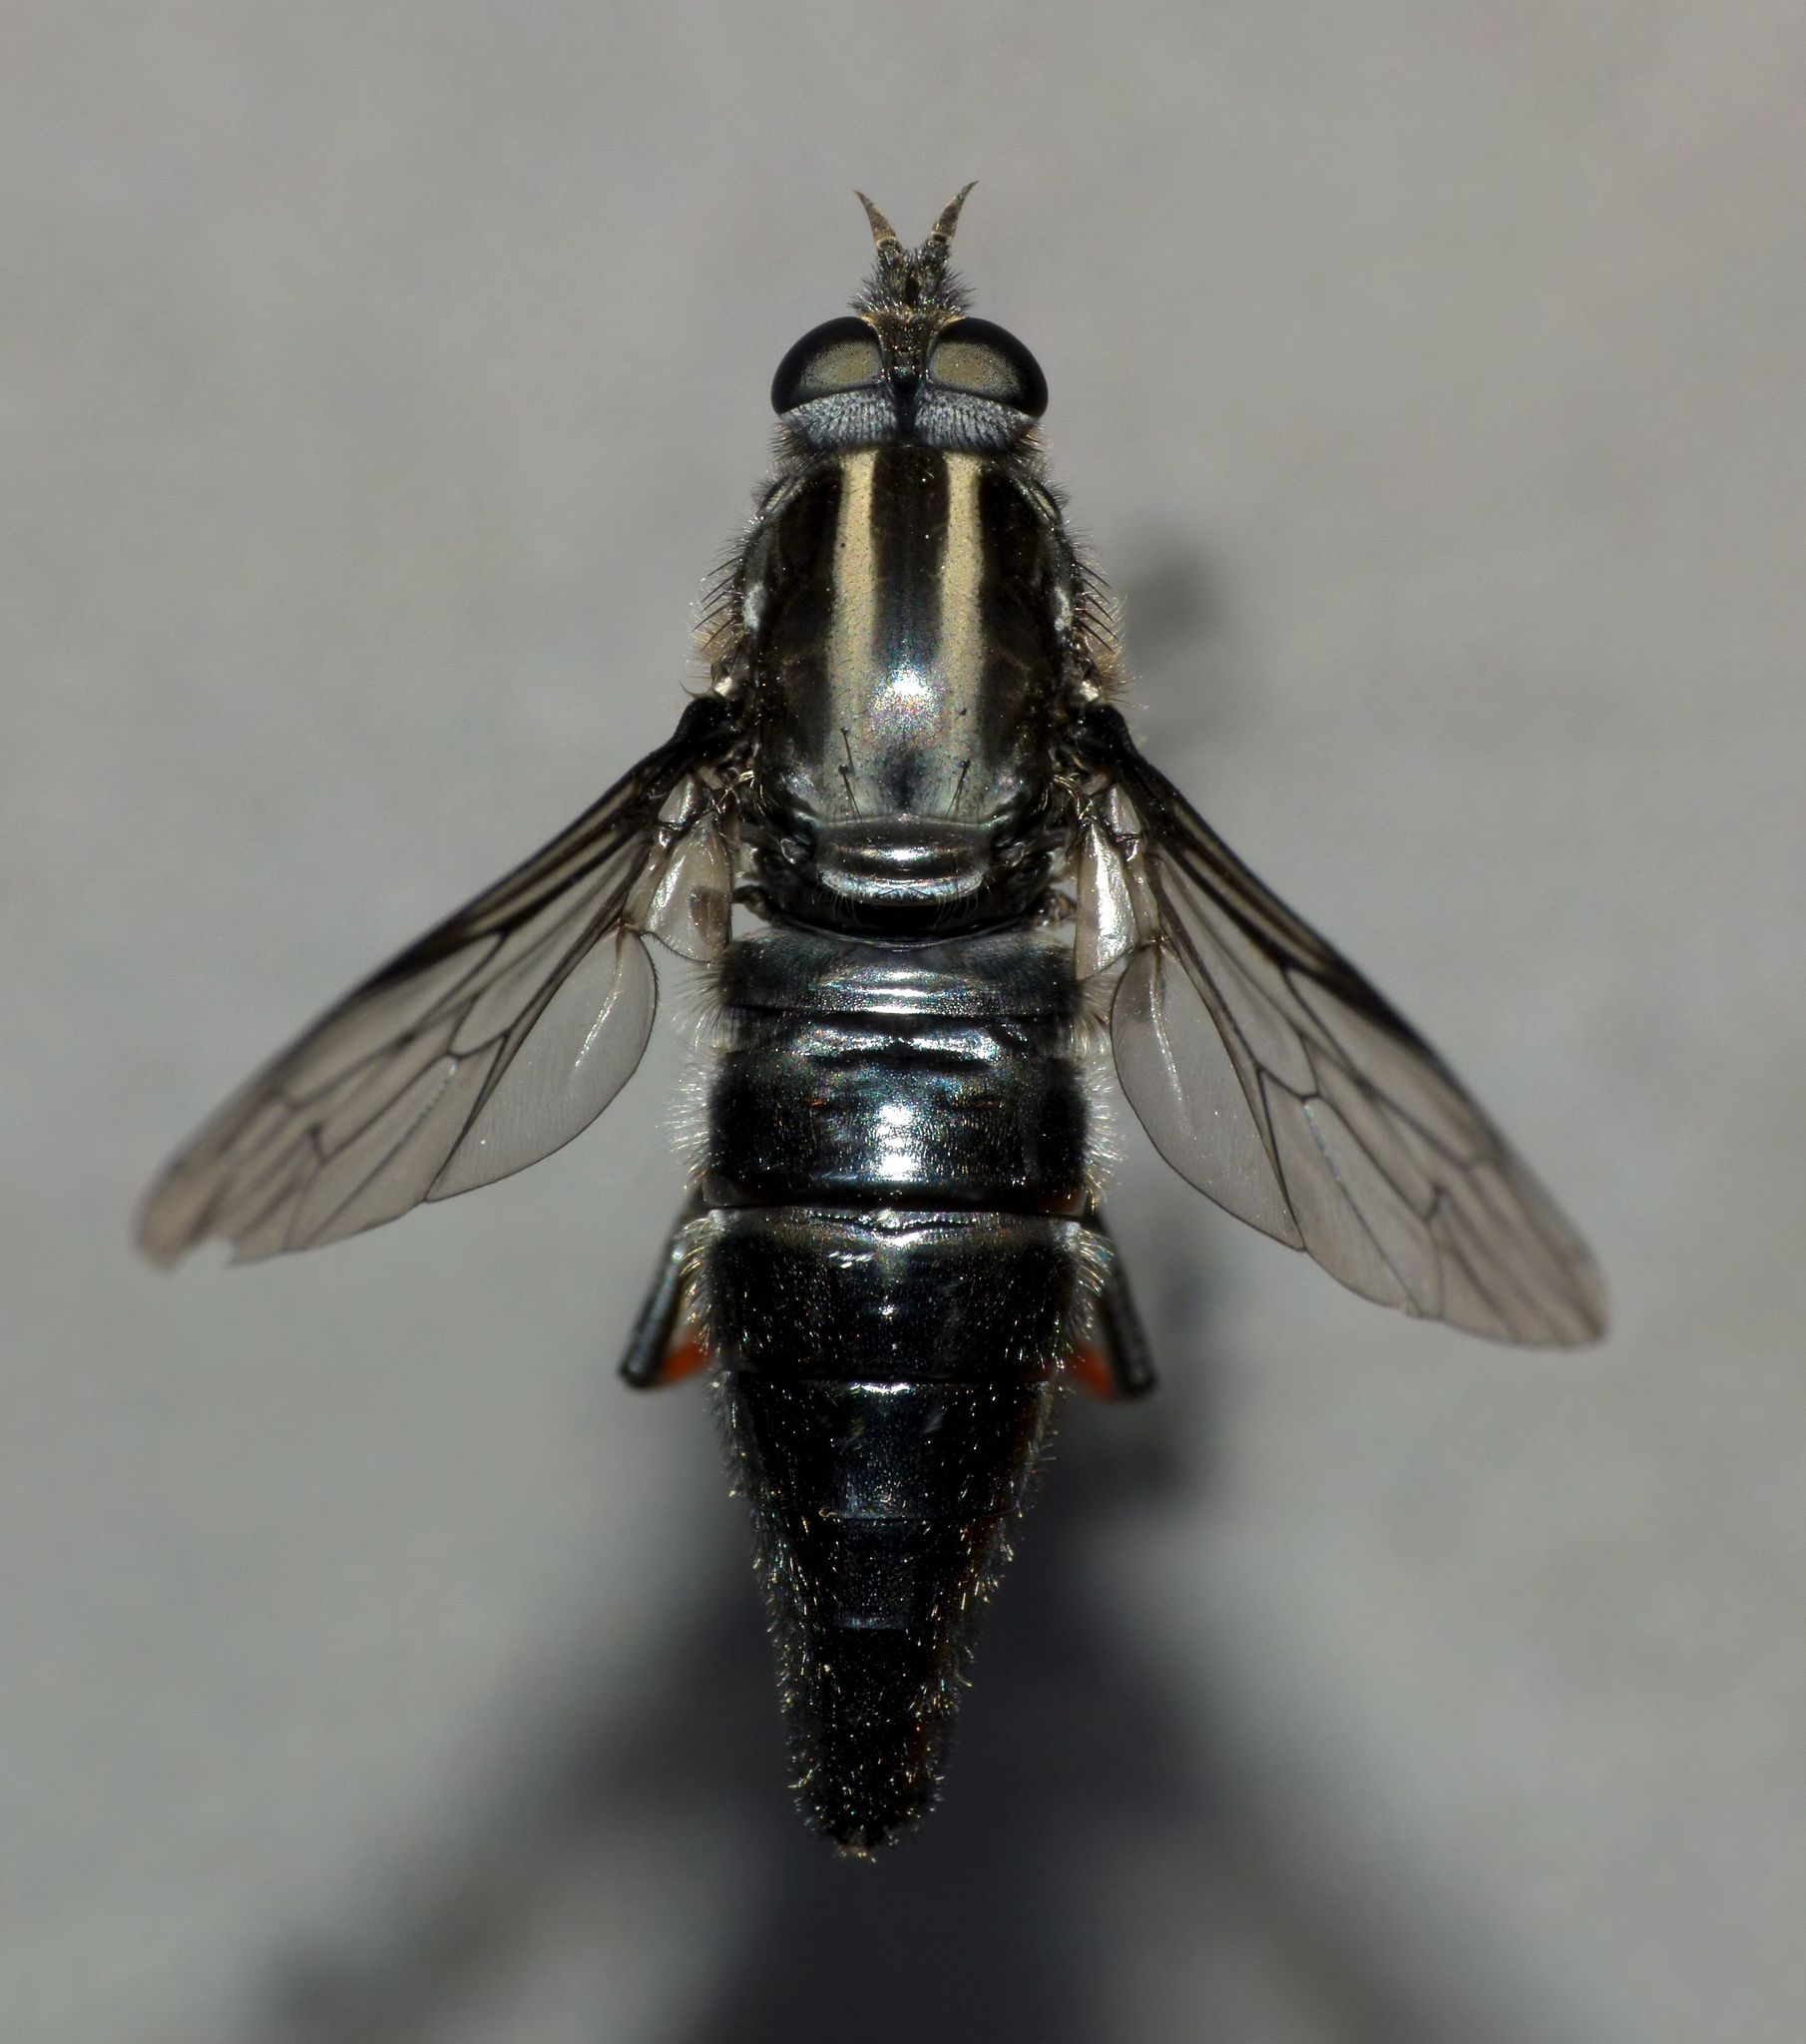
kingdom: Animalia
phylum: Arthropoda
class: Insecta
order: Diptera
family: Therevidae
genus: Megathereva
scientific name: Megathereva albopilosa
